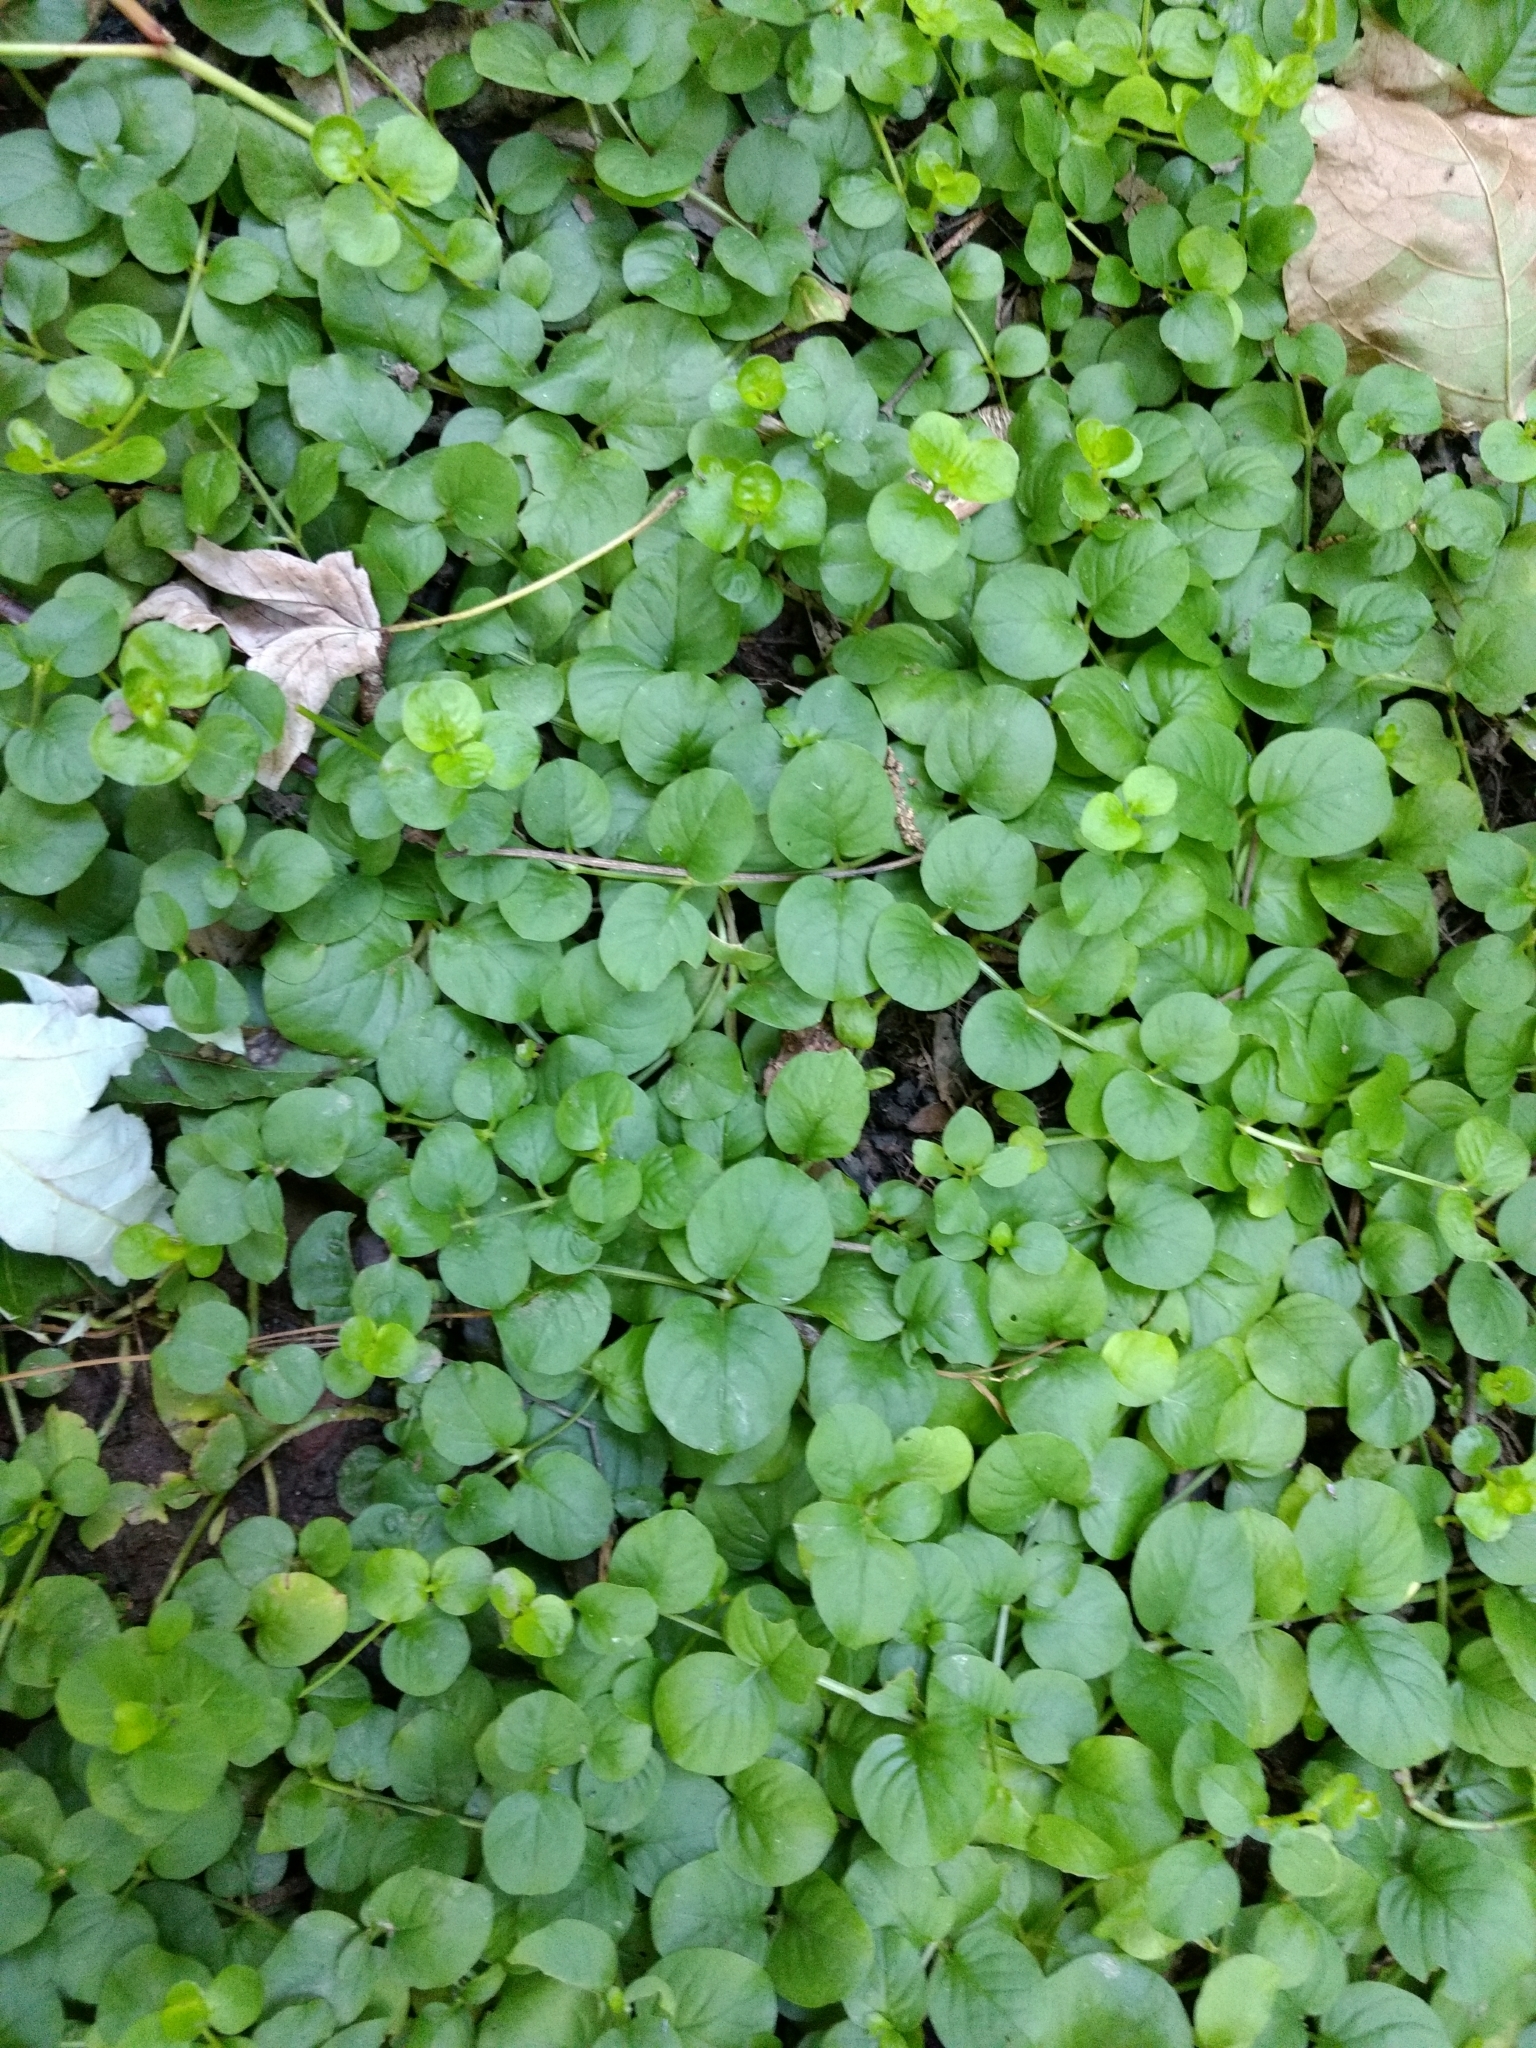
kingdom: Plantae
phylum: Tracheophyta
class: Magnoliopsida
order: Ericales
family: Primulaceae
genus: Lysimachia
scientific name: Lysimachia nummularia
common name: Moneywort
